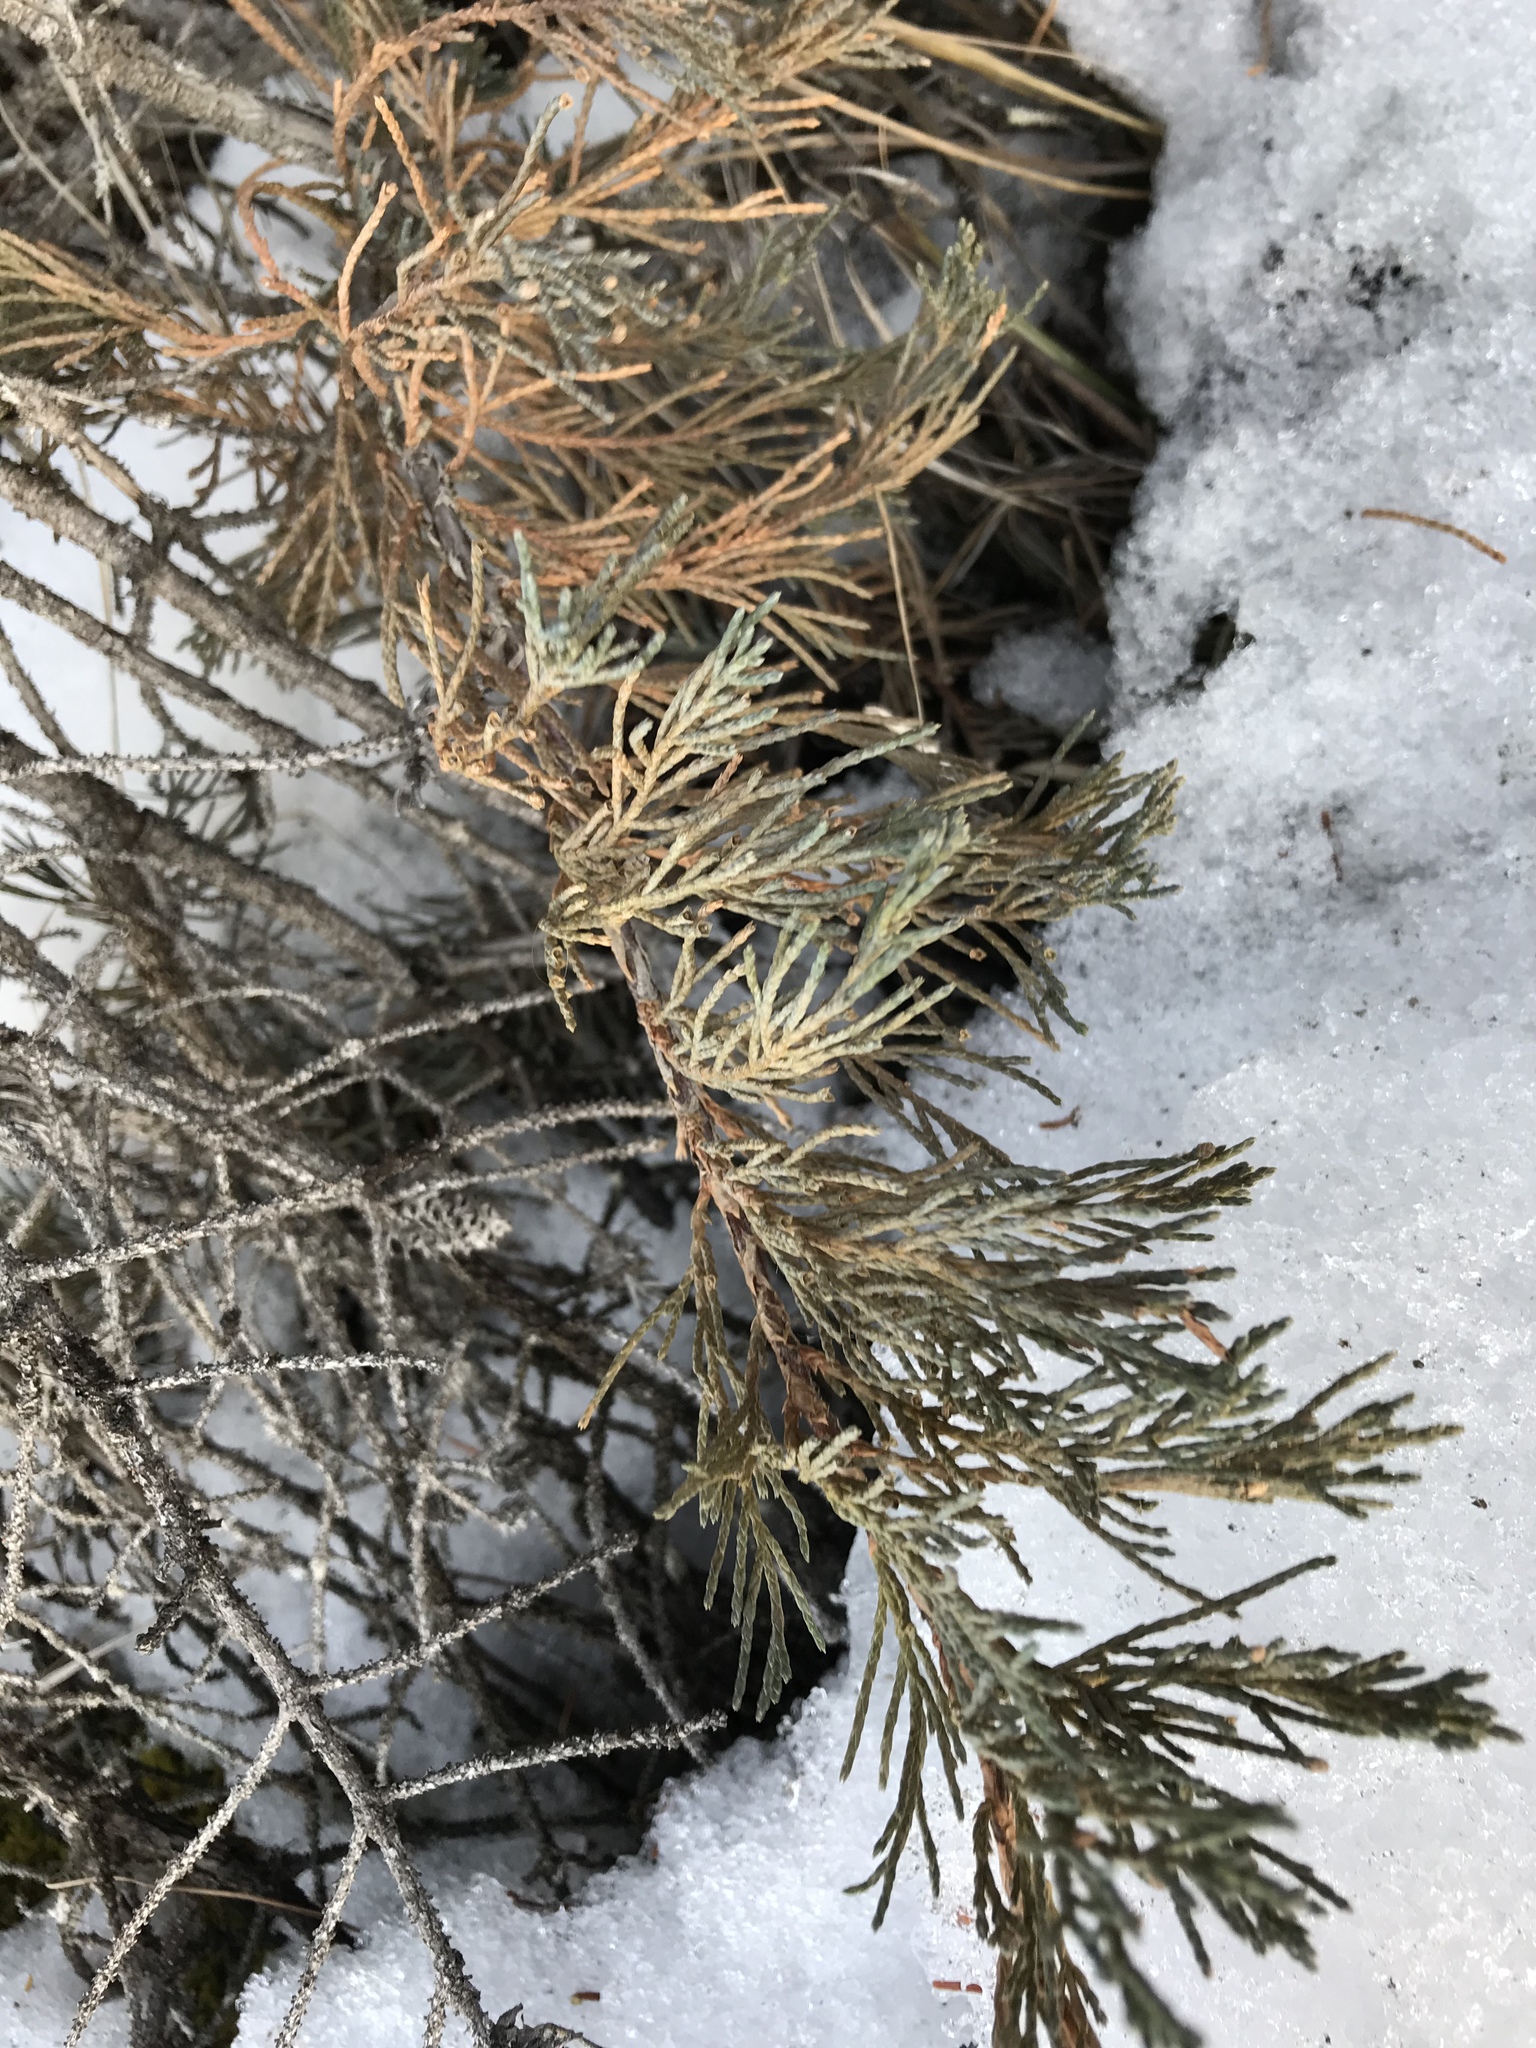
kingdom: Plantae
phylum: Tracheophyta
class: Pinopsida
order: Pinales
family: Cupressaceae
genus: Juniperus
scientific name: Juniperus horizontalis
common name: Creeping juniper
